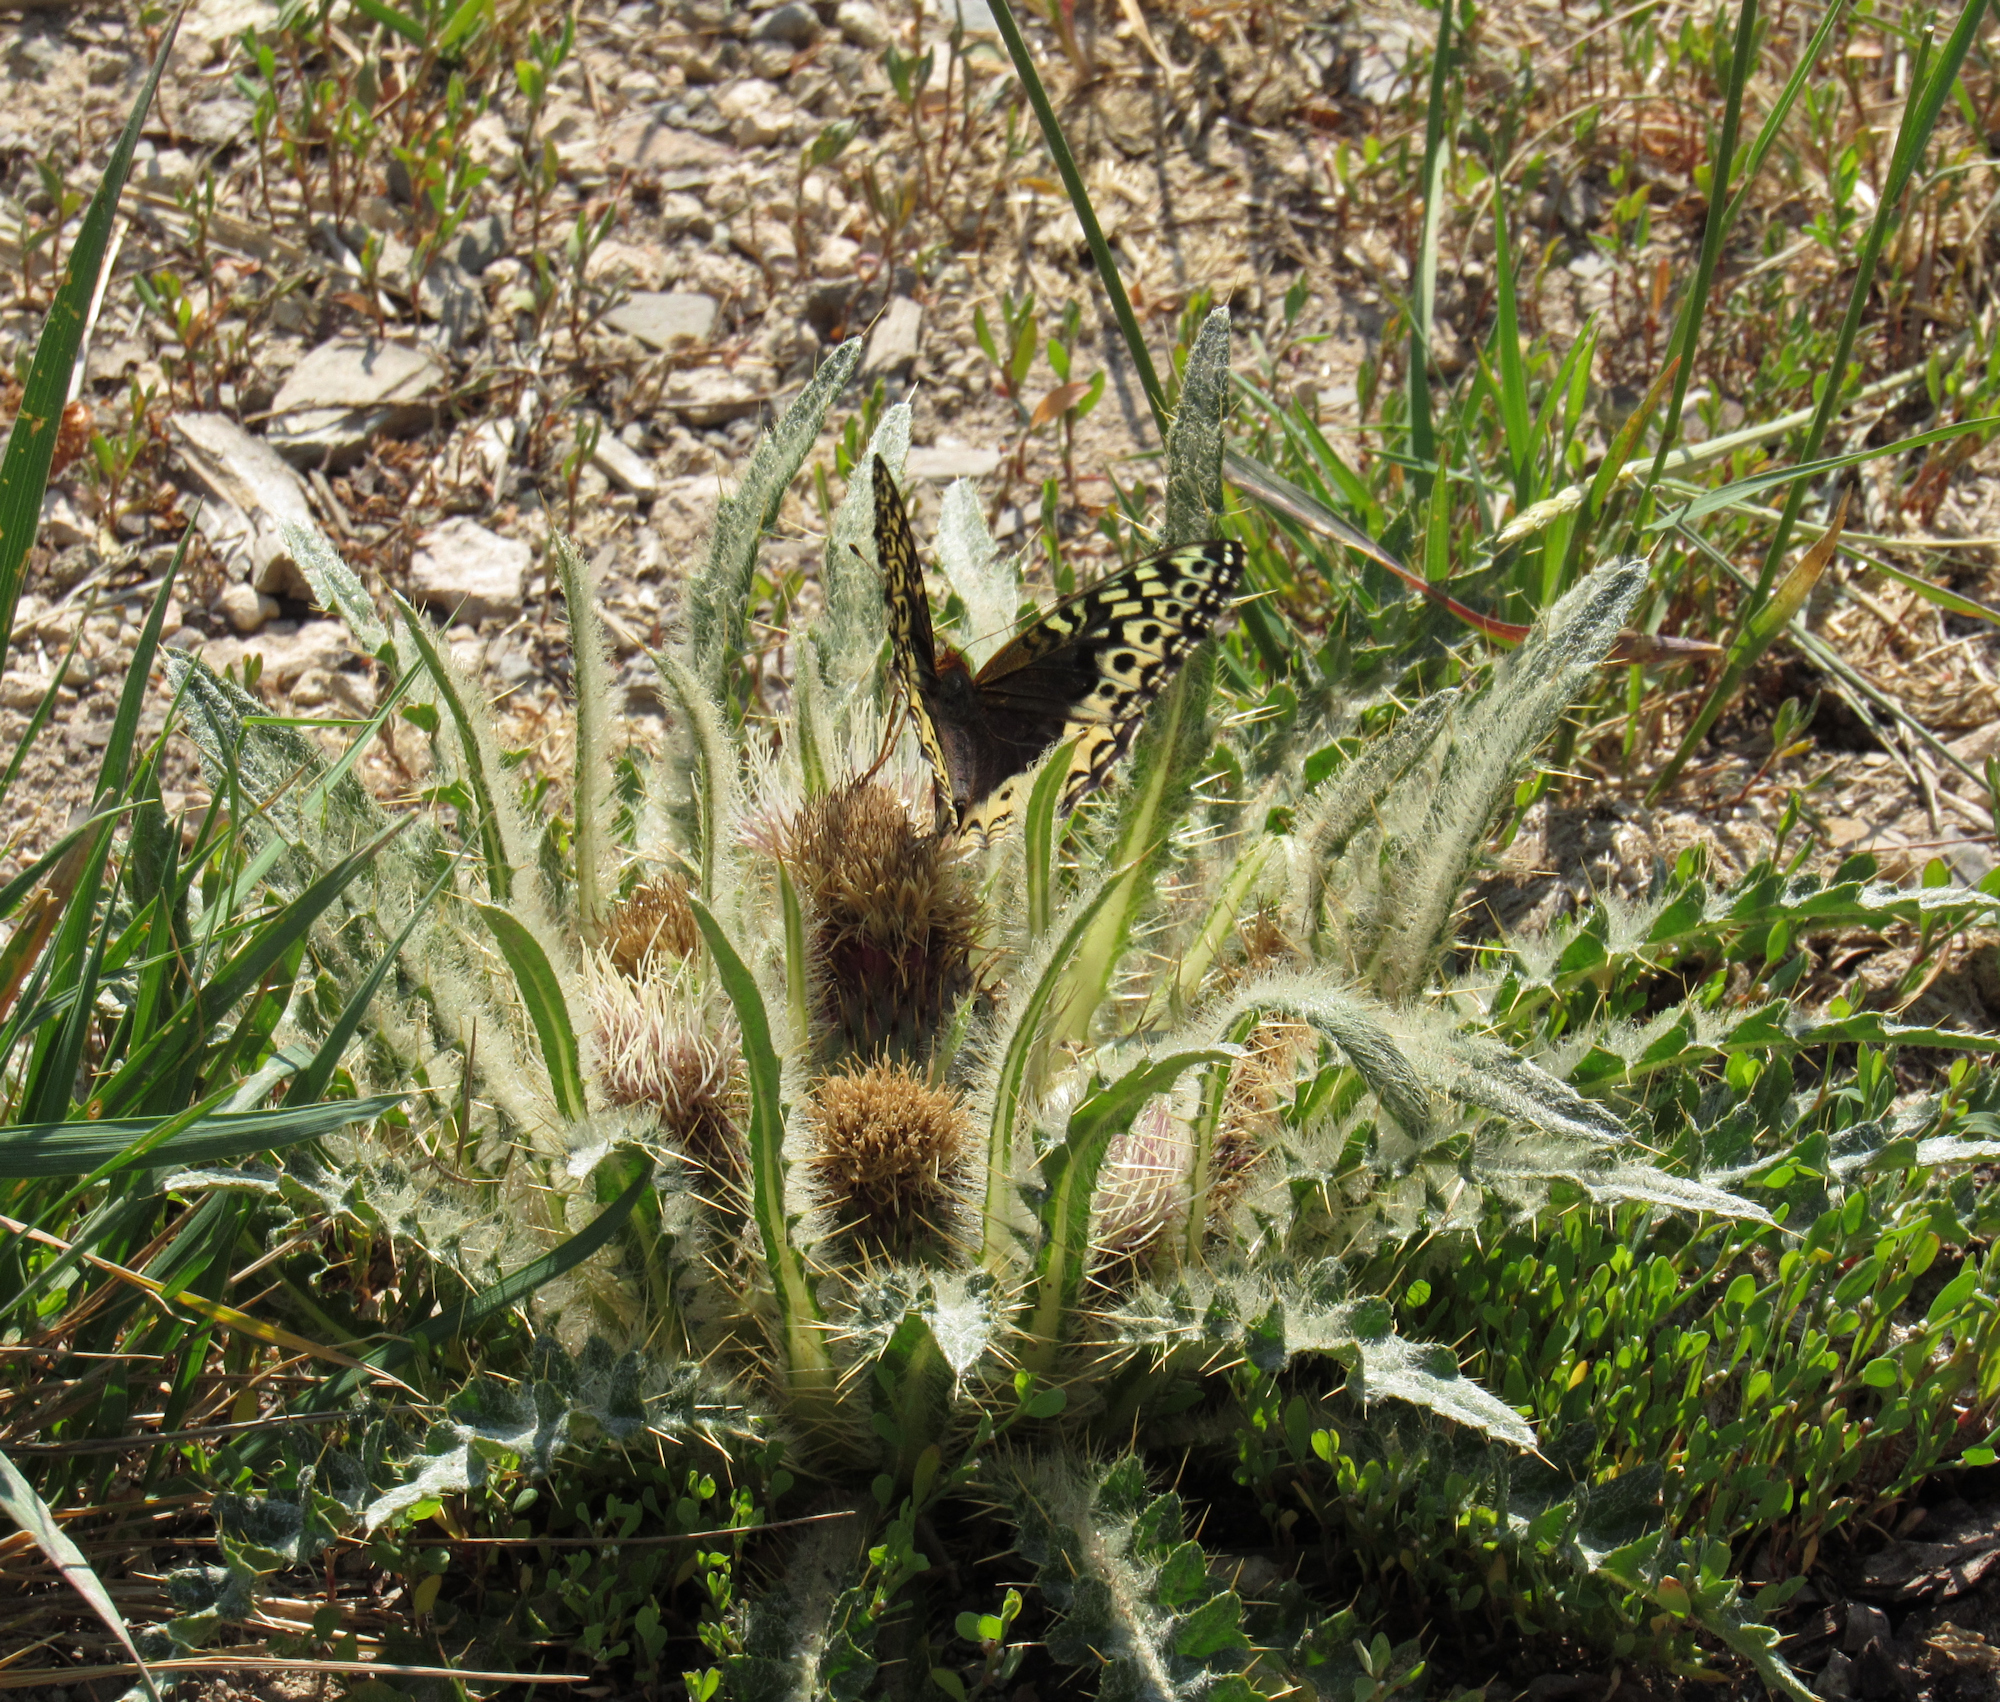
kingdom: Plantae
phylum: Tracheophyta
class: Magnoliopsida
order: Asterales
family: Asteraceae
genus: Cirsium
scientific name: Cirsium scariosum
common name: Meadow thistle
